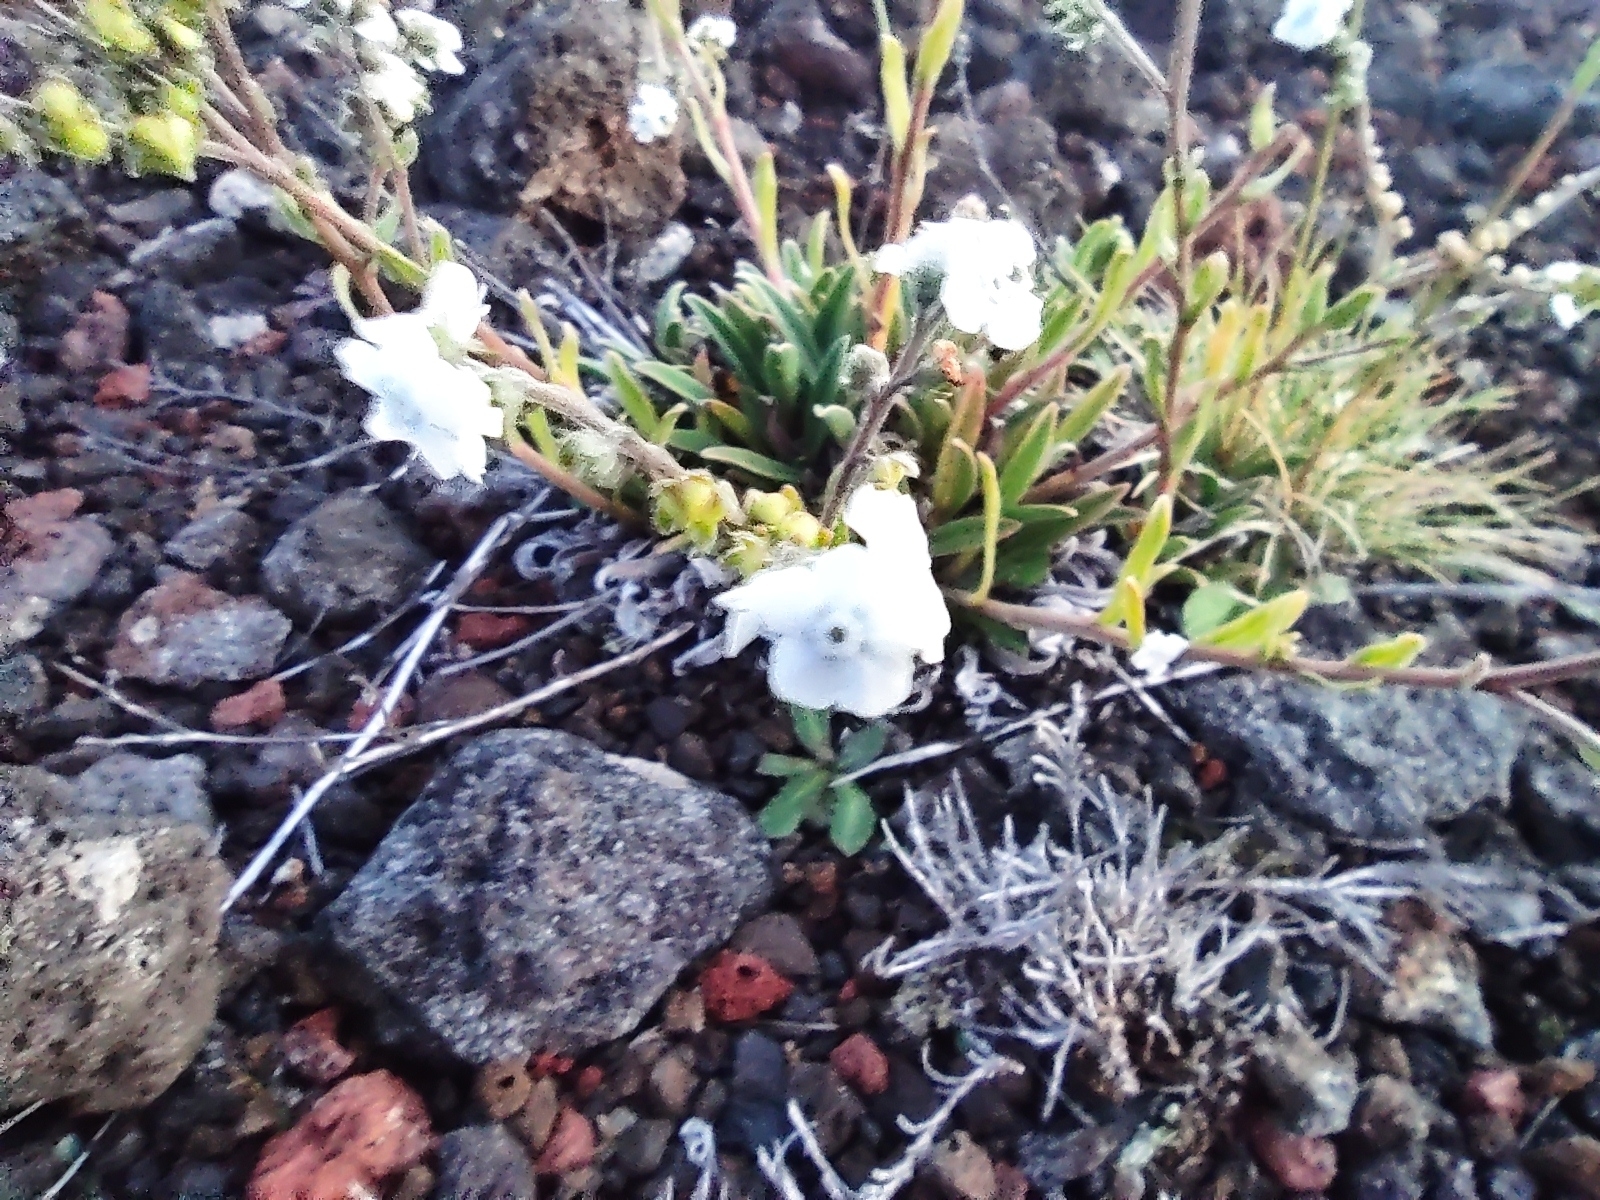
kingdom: Plantae
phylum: Tracheophyta
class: Magnoliopsida
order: Boraginales
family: Boraginaceae
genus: Cynoglossum
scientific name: Cynoglossum borbonicum
